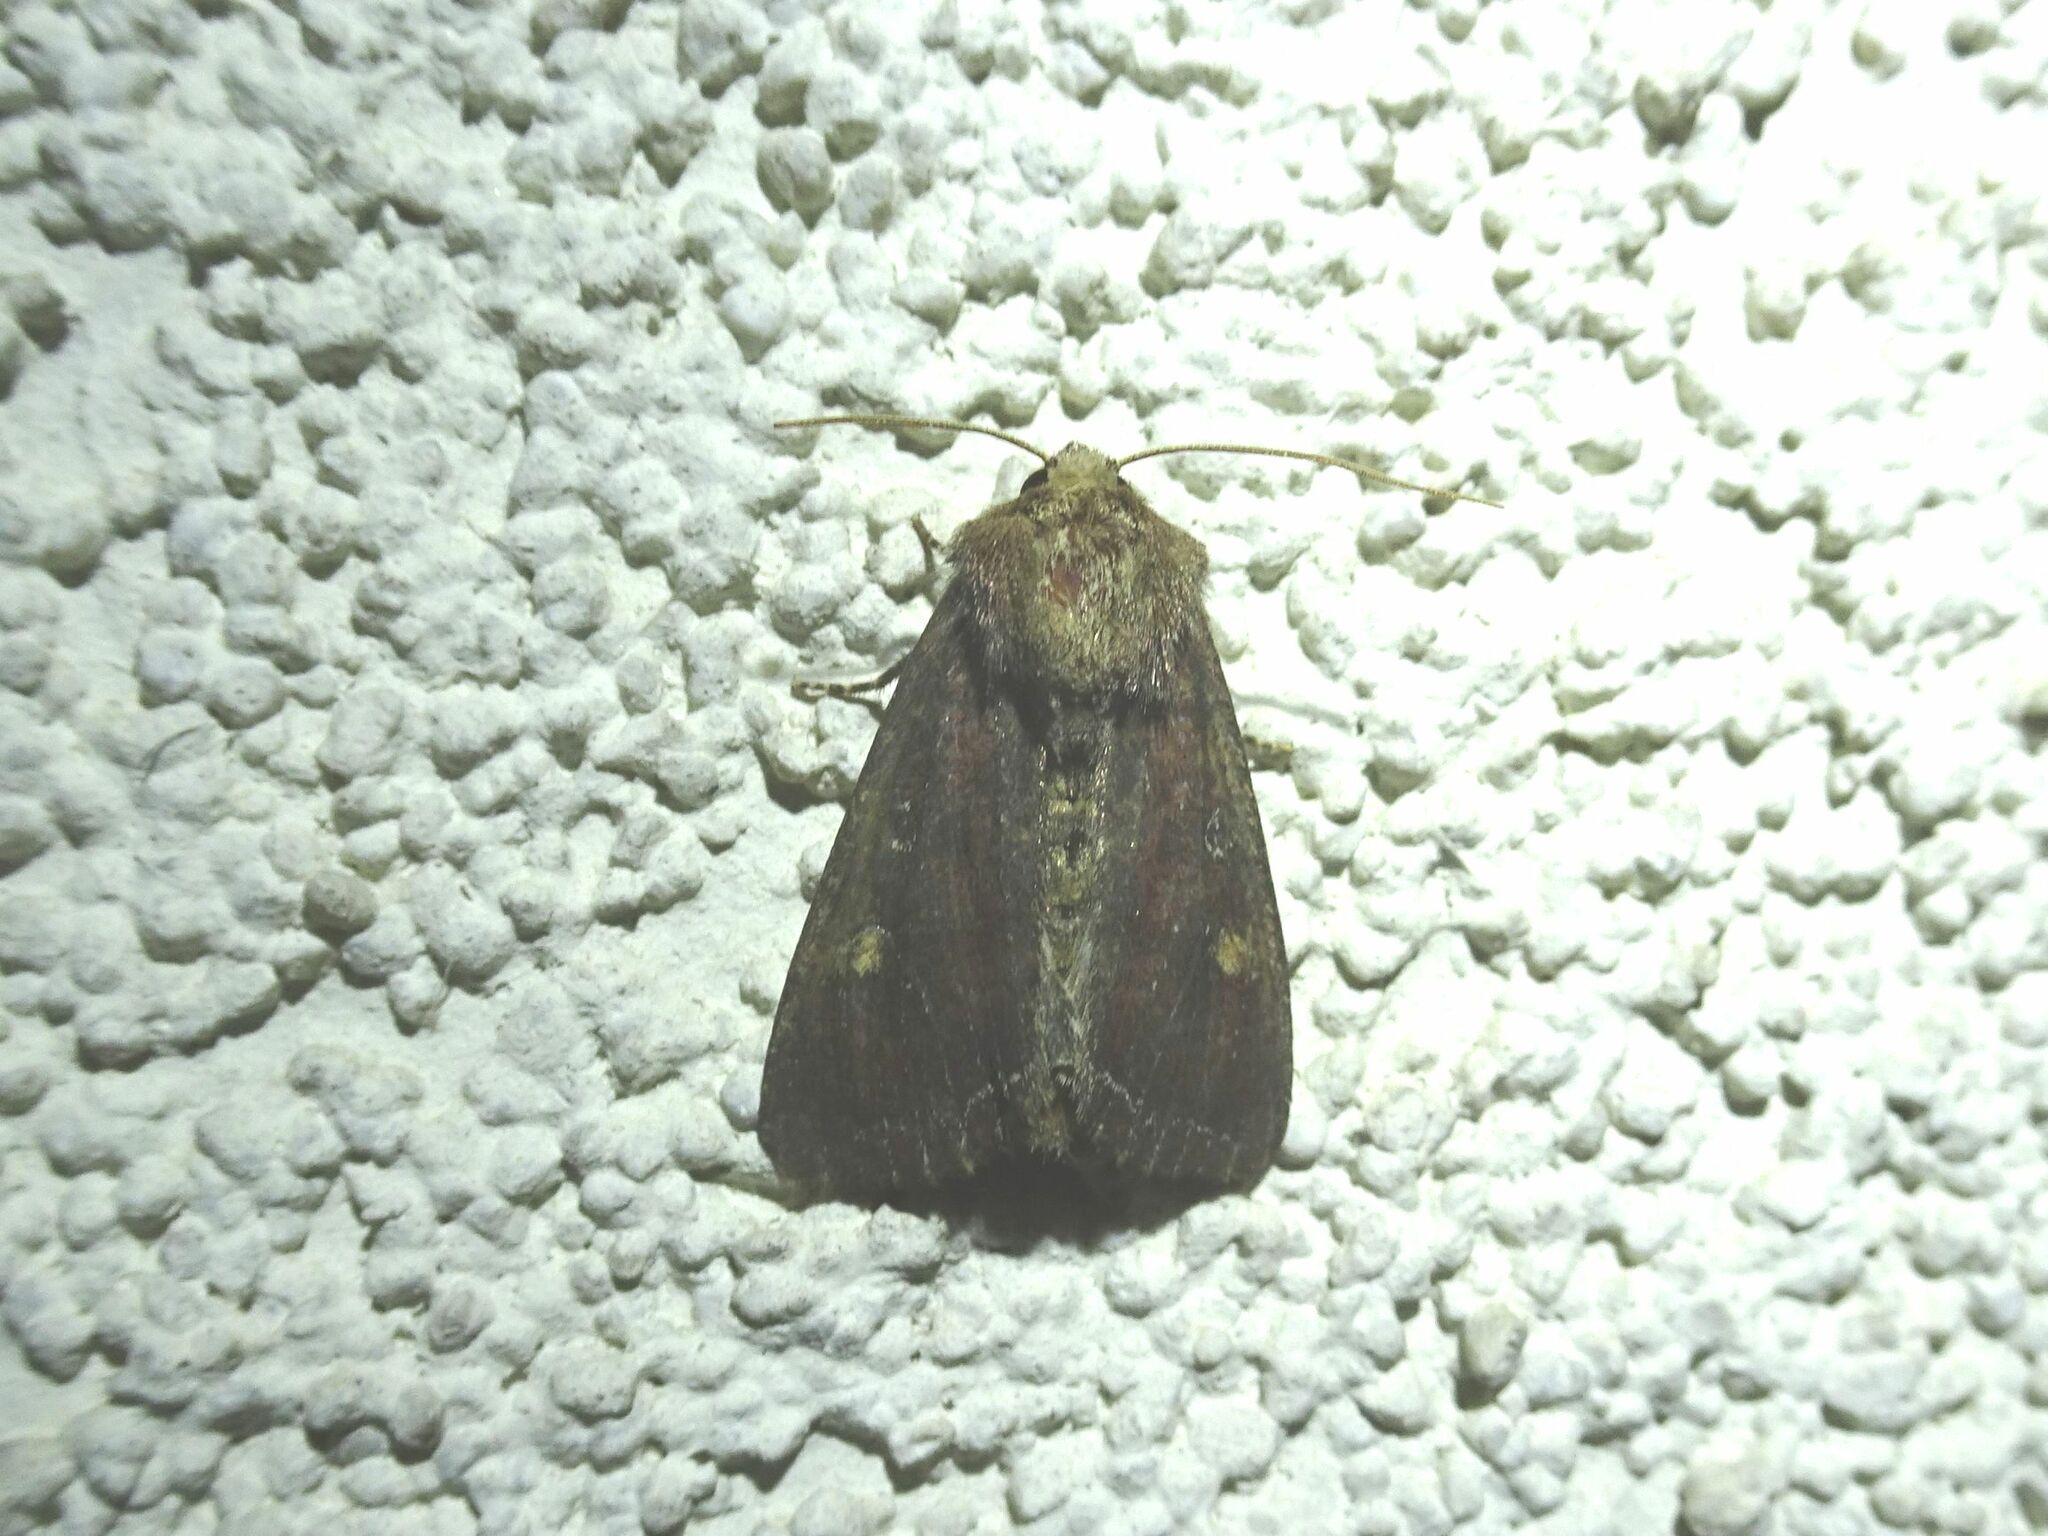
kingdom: Animalia
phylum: Arthropoda
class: Insecta
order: Lepidoptera
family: Noctuidae
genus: Lacanobia
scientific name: Lacanobia oleracea
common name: Bright-line brown-eye
